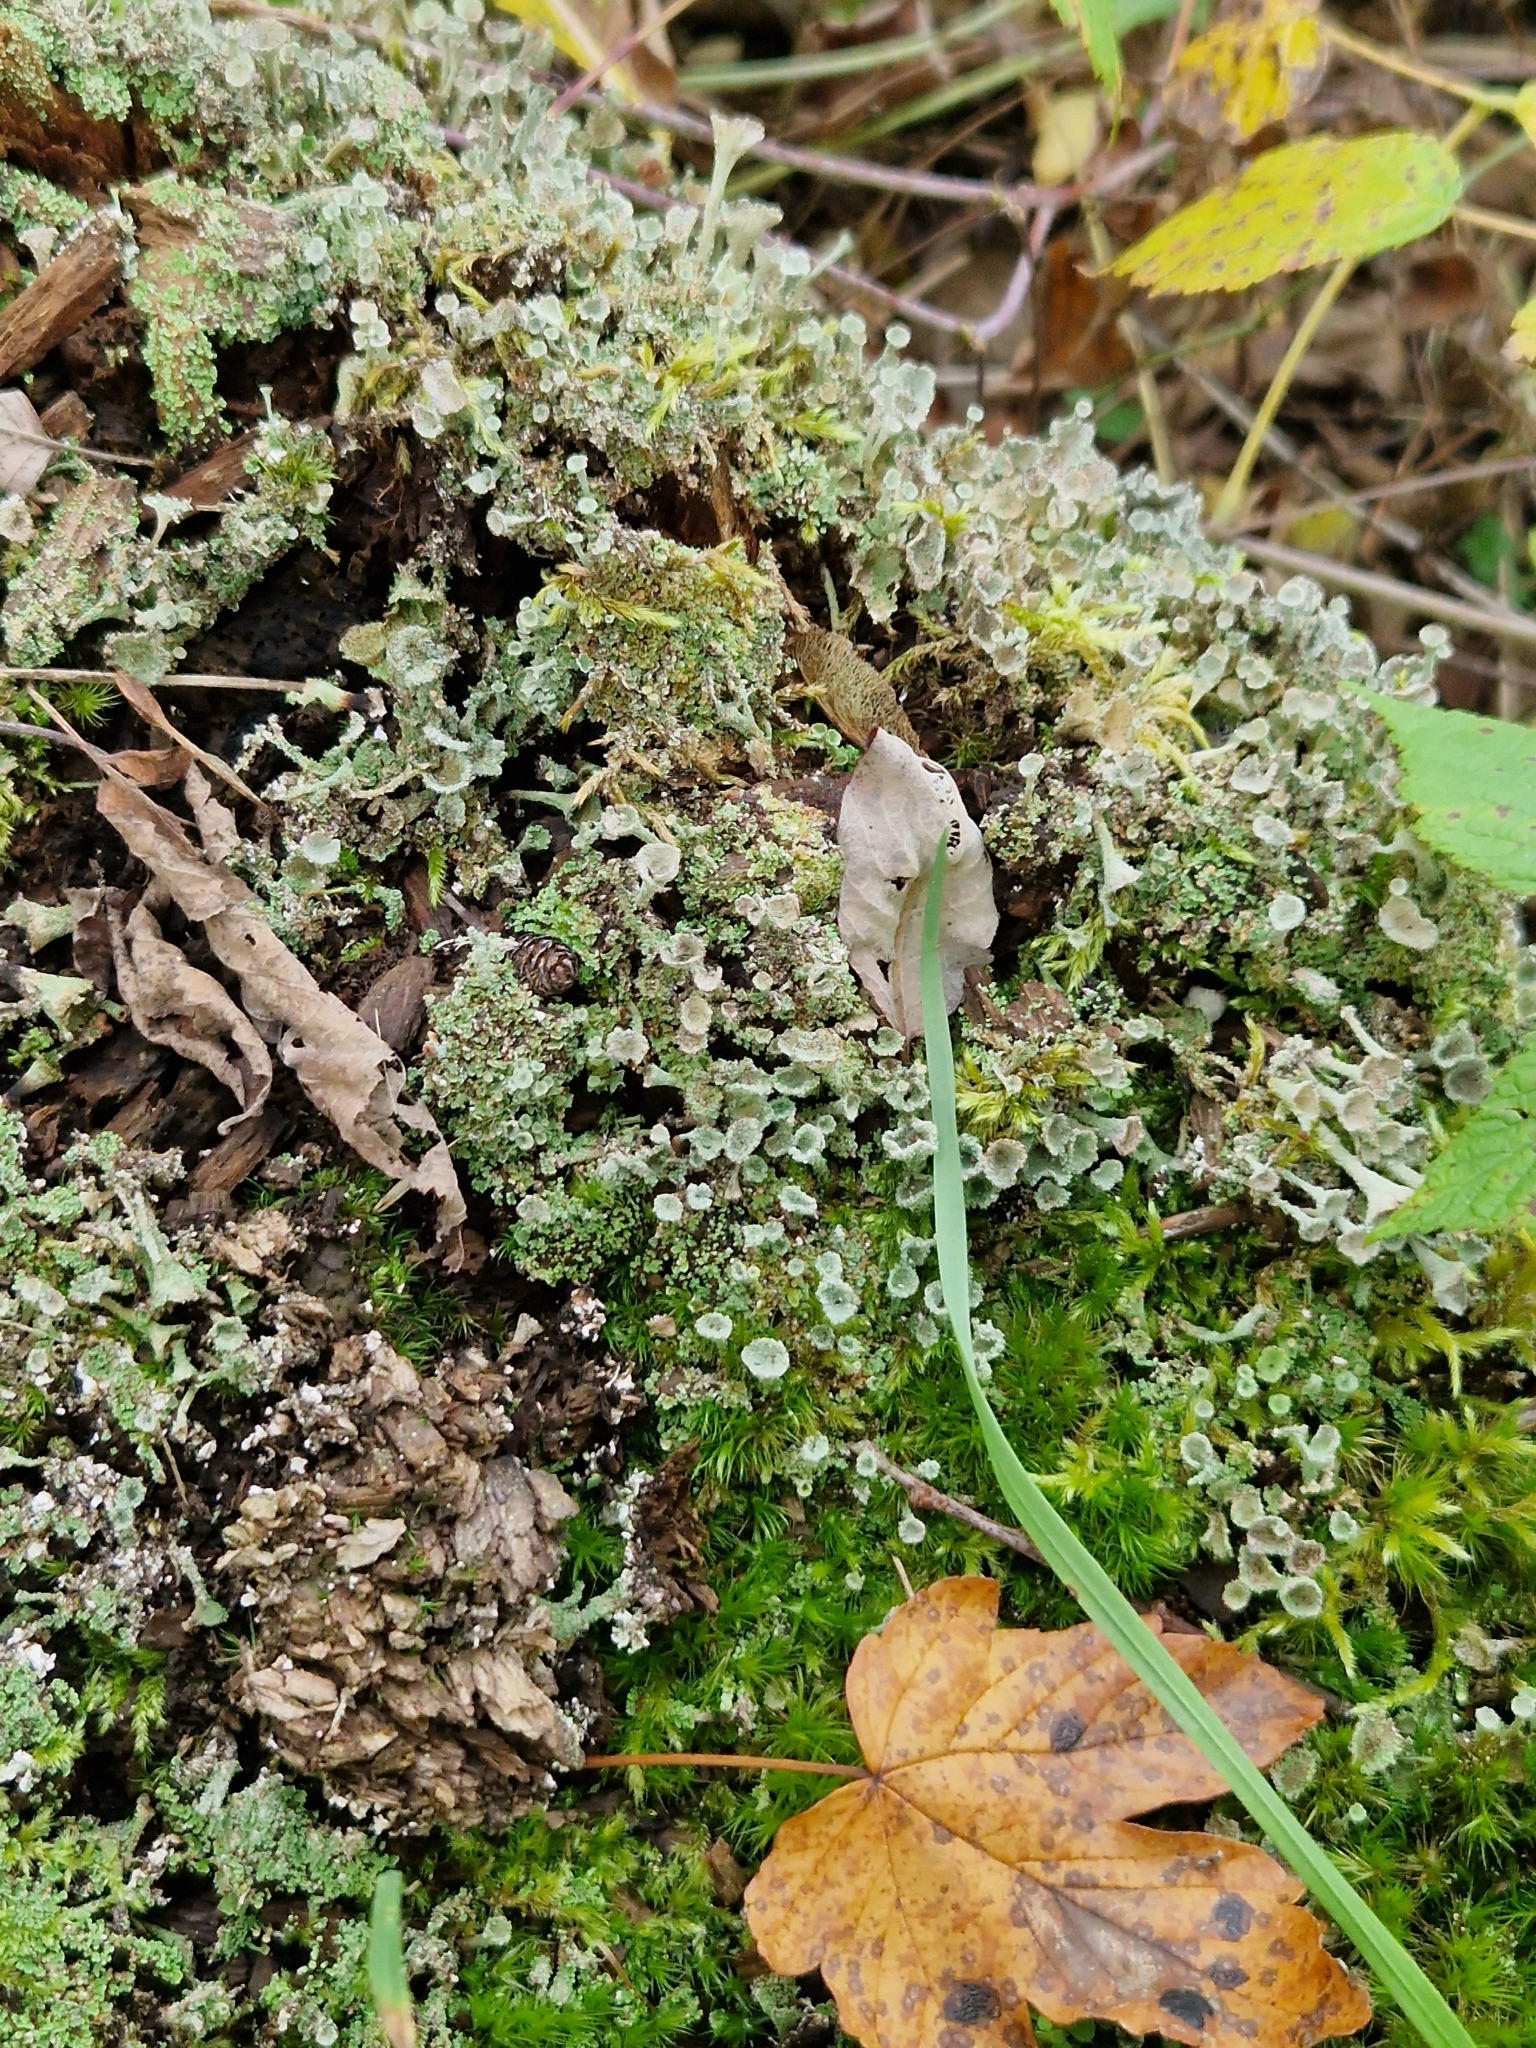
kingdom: Fungi
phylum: Ascomycota
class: Lecanoromycetes
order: Lecanorales
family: Cladoniaceae
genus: Cladonia
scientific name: Cladonia pyxidata
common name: Pebbled pixie cup
